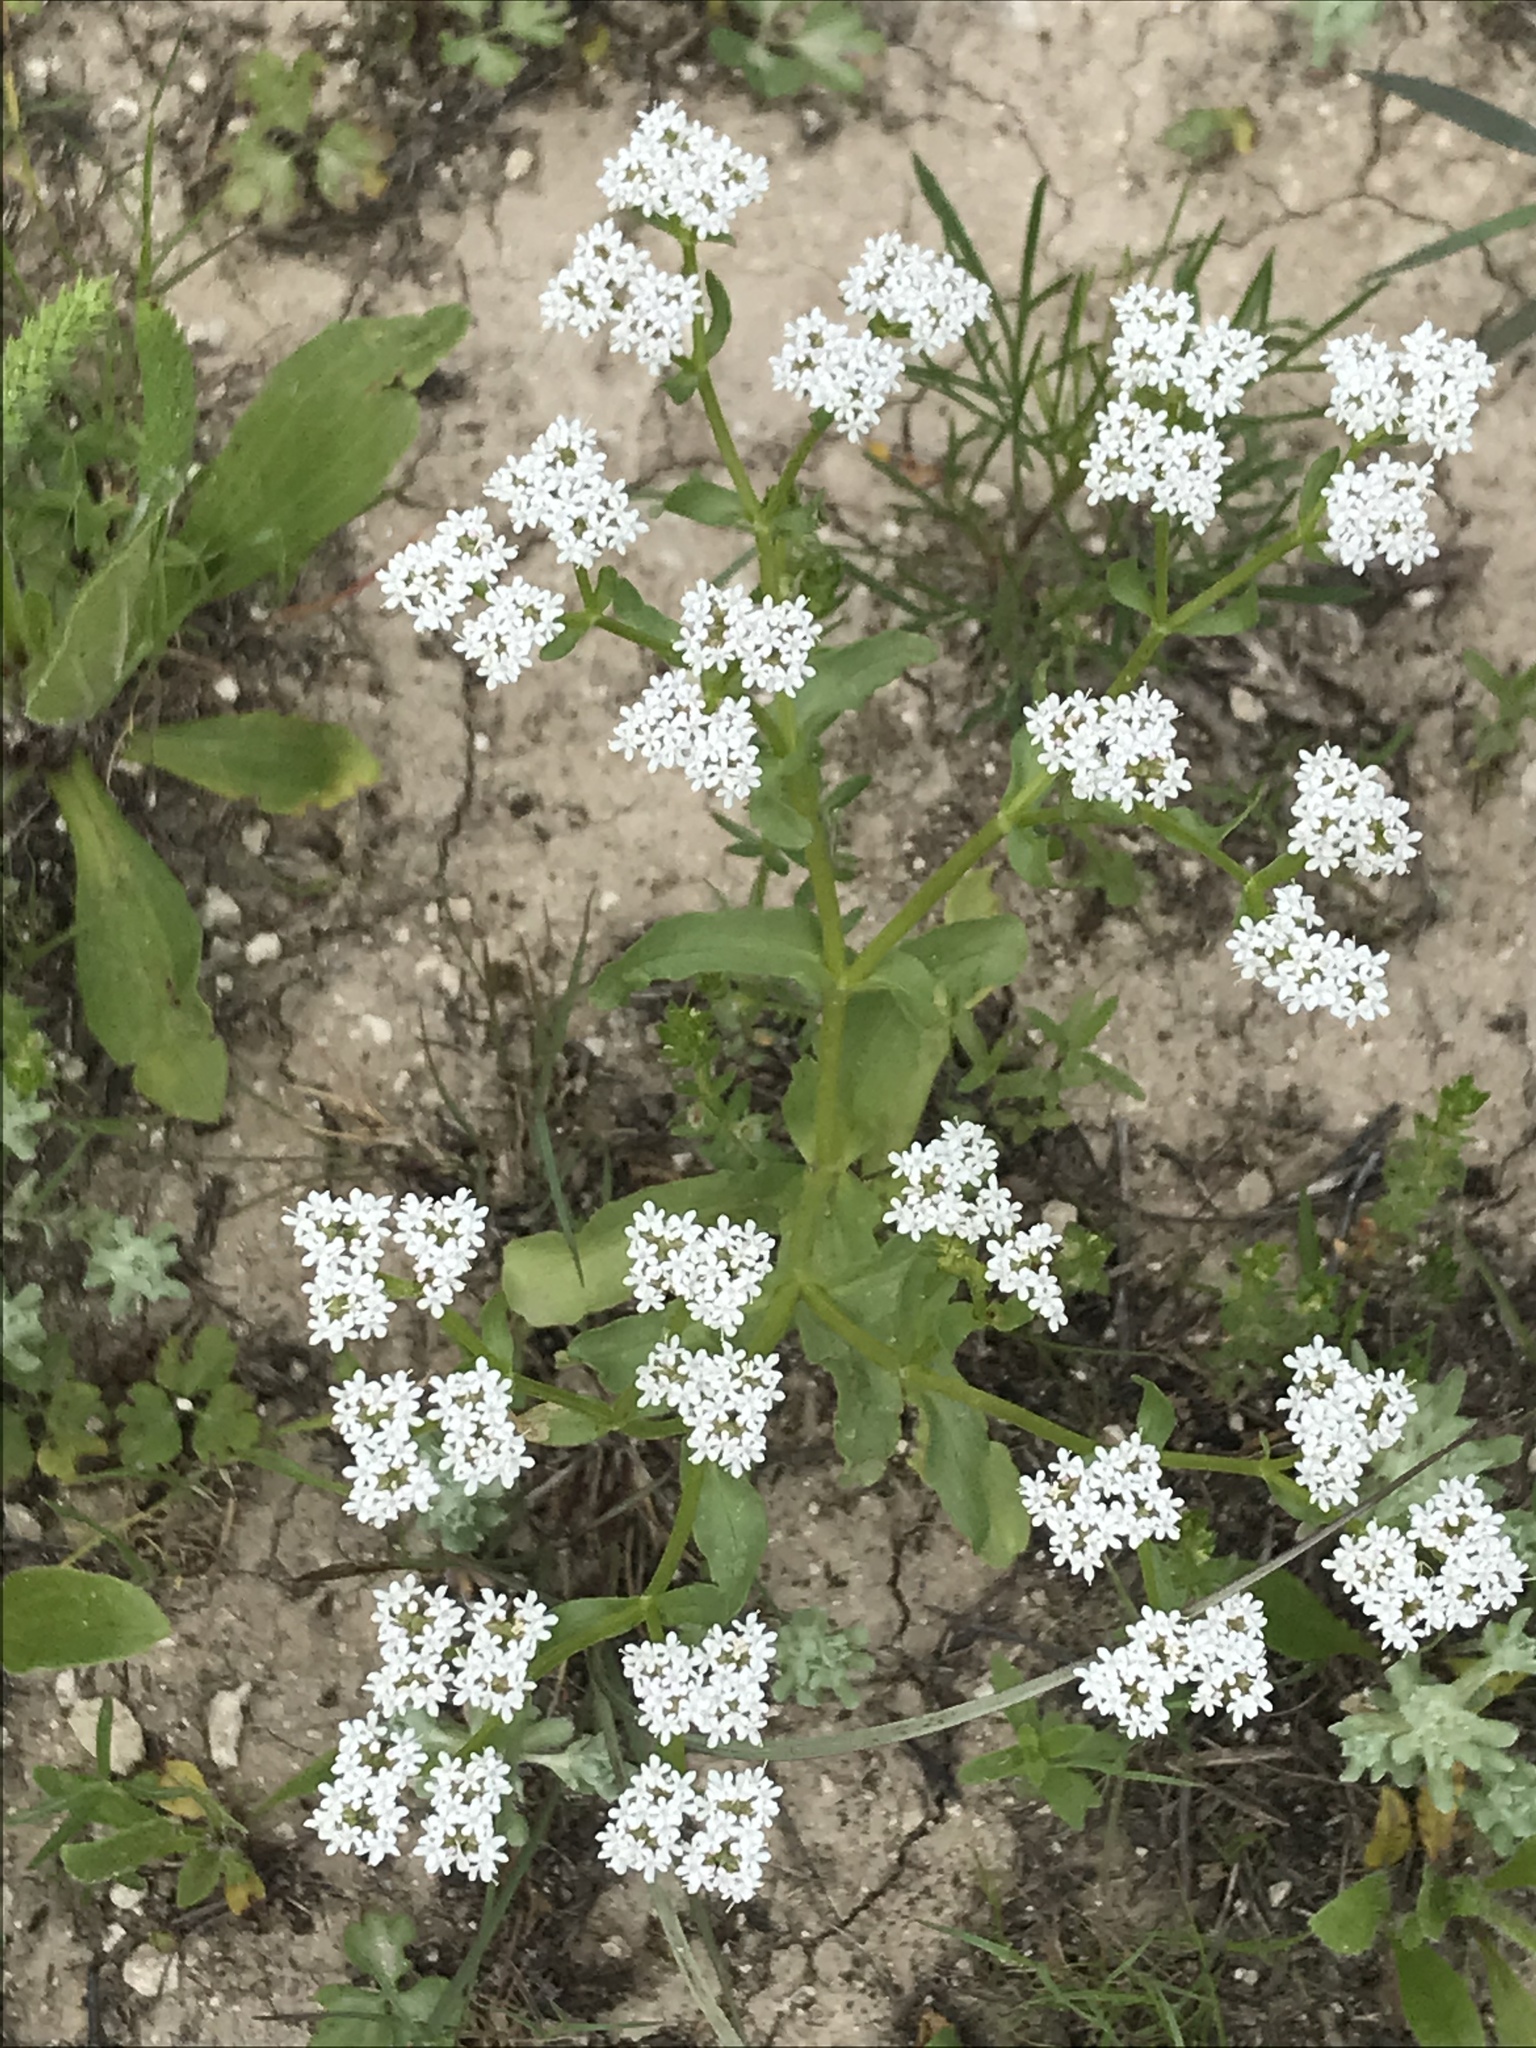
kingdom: Plantae
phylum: Tracheophyta
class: Magnoliopsida
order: Dipsacales
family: Caprifoliaceae
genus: Valerianella
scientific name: Valerianella amarella
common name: Hariy cornsalad
